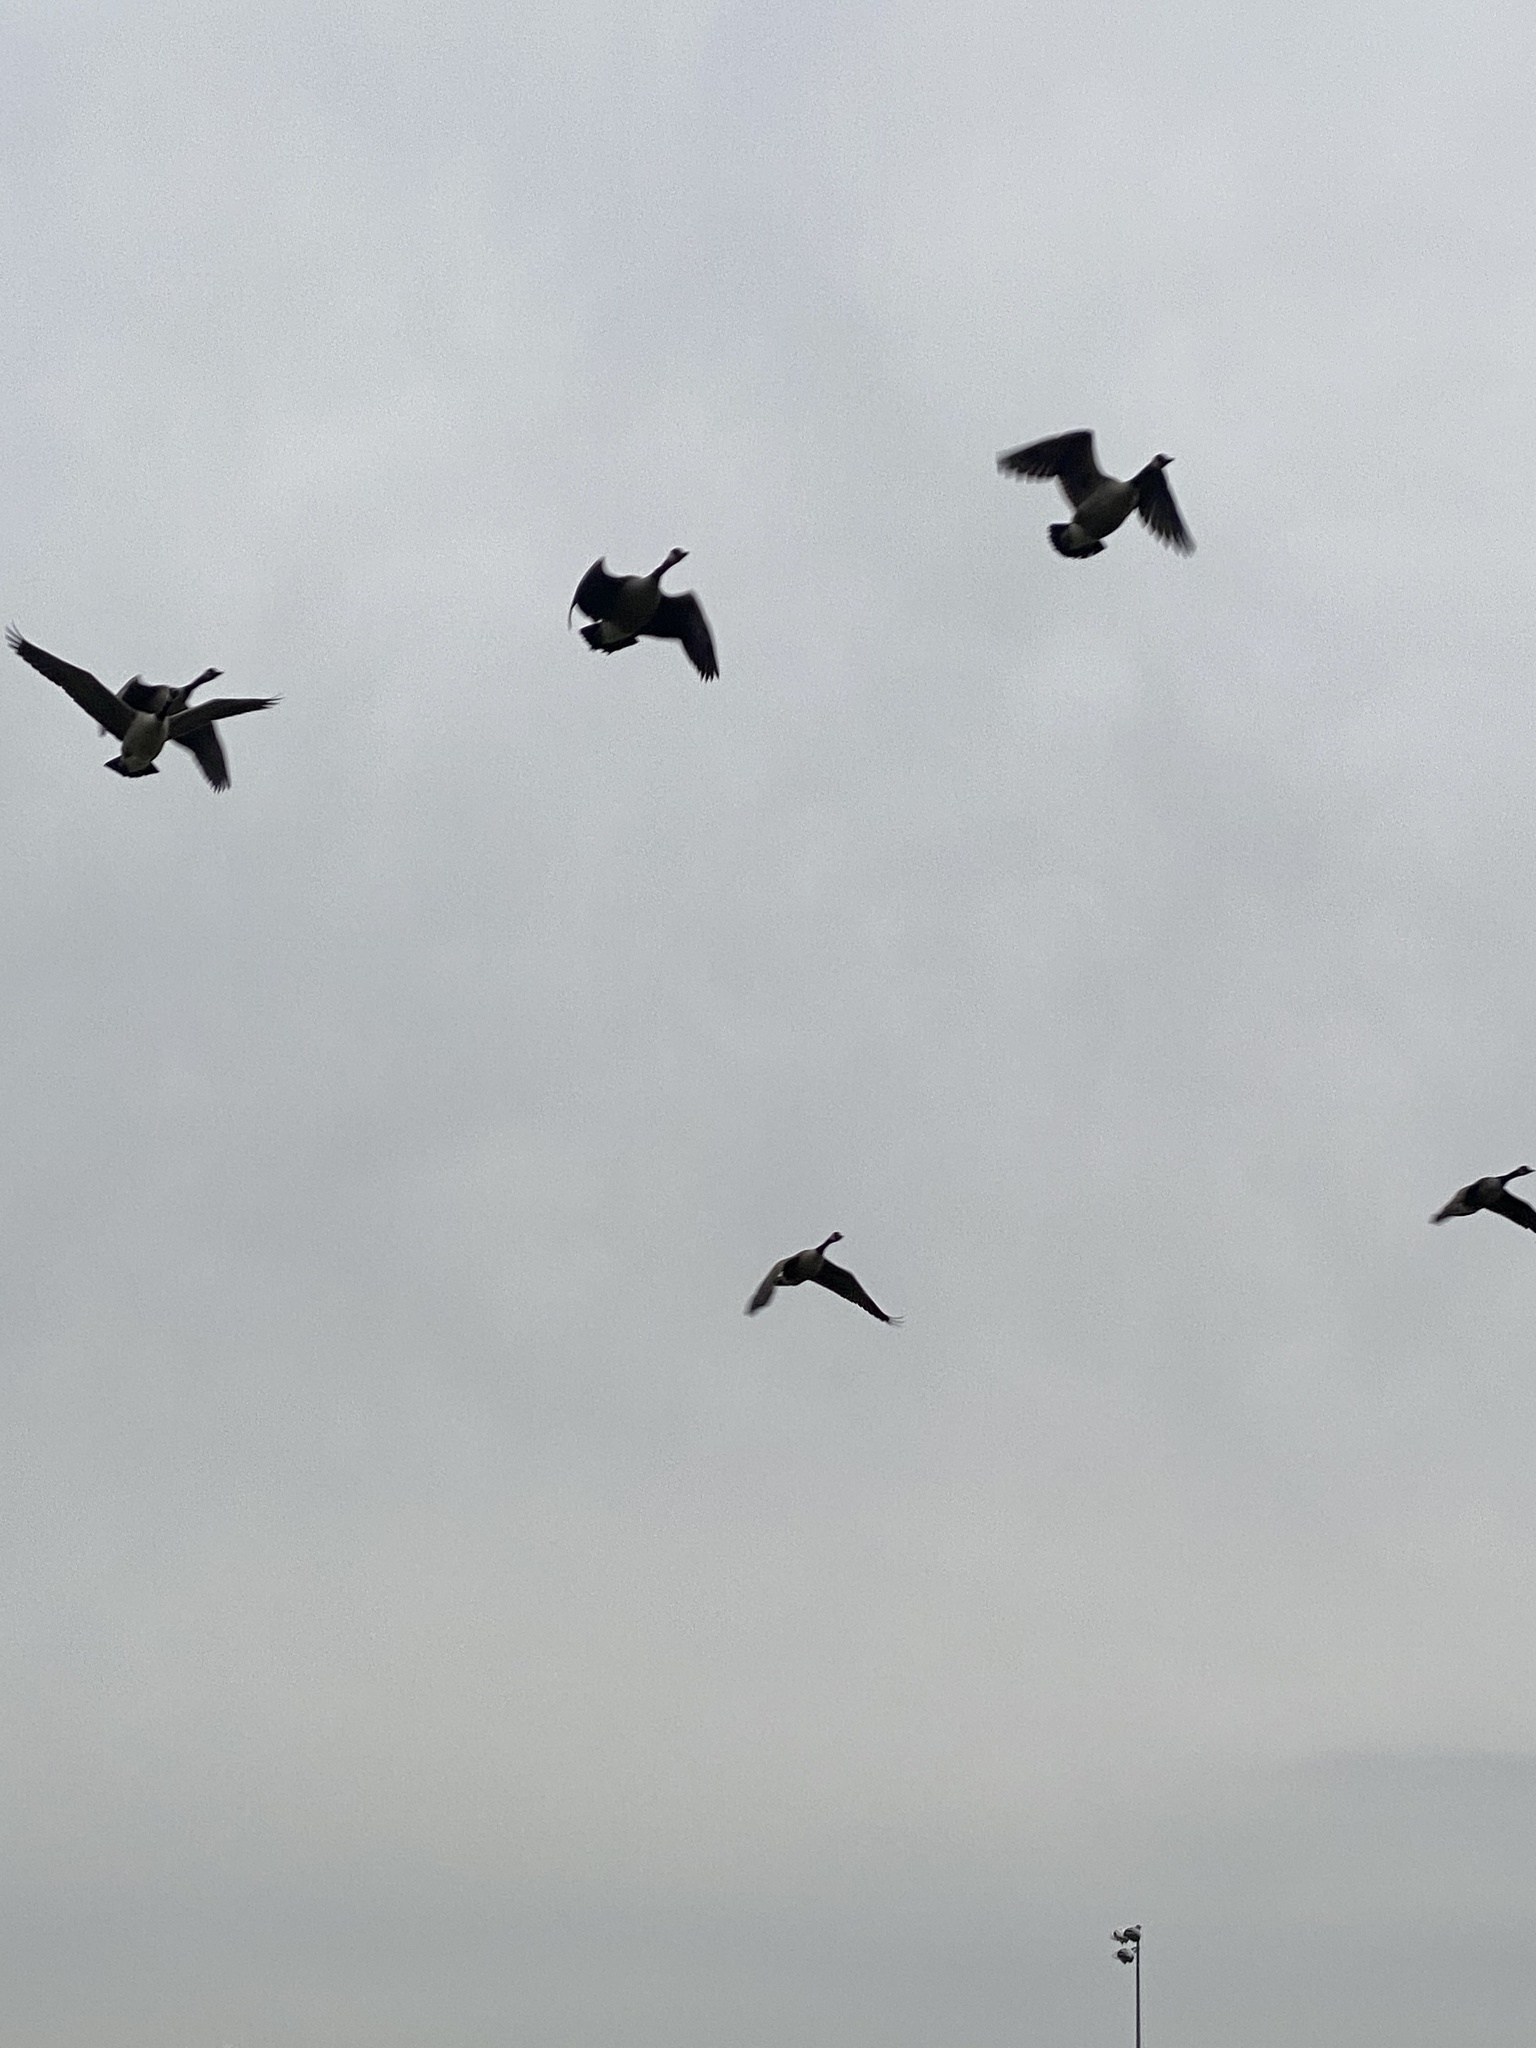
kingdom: Animalia
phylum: Chordata
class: Aves
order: Anseriformes
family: Anatidae
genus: Branta
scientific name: Branta canadensis
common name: Canada goose
